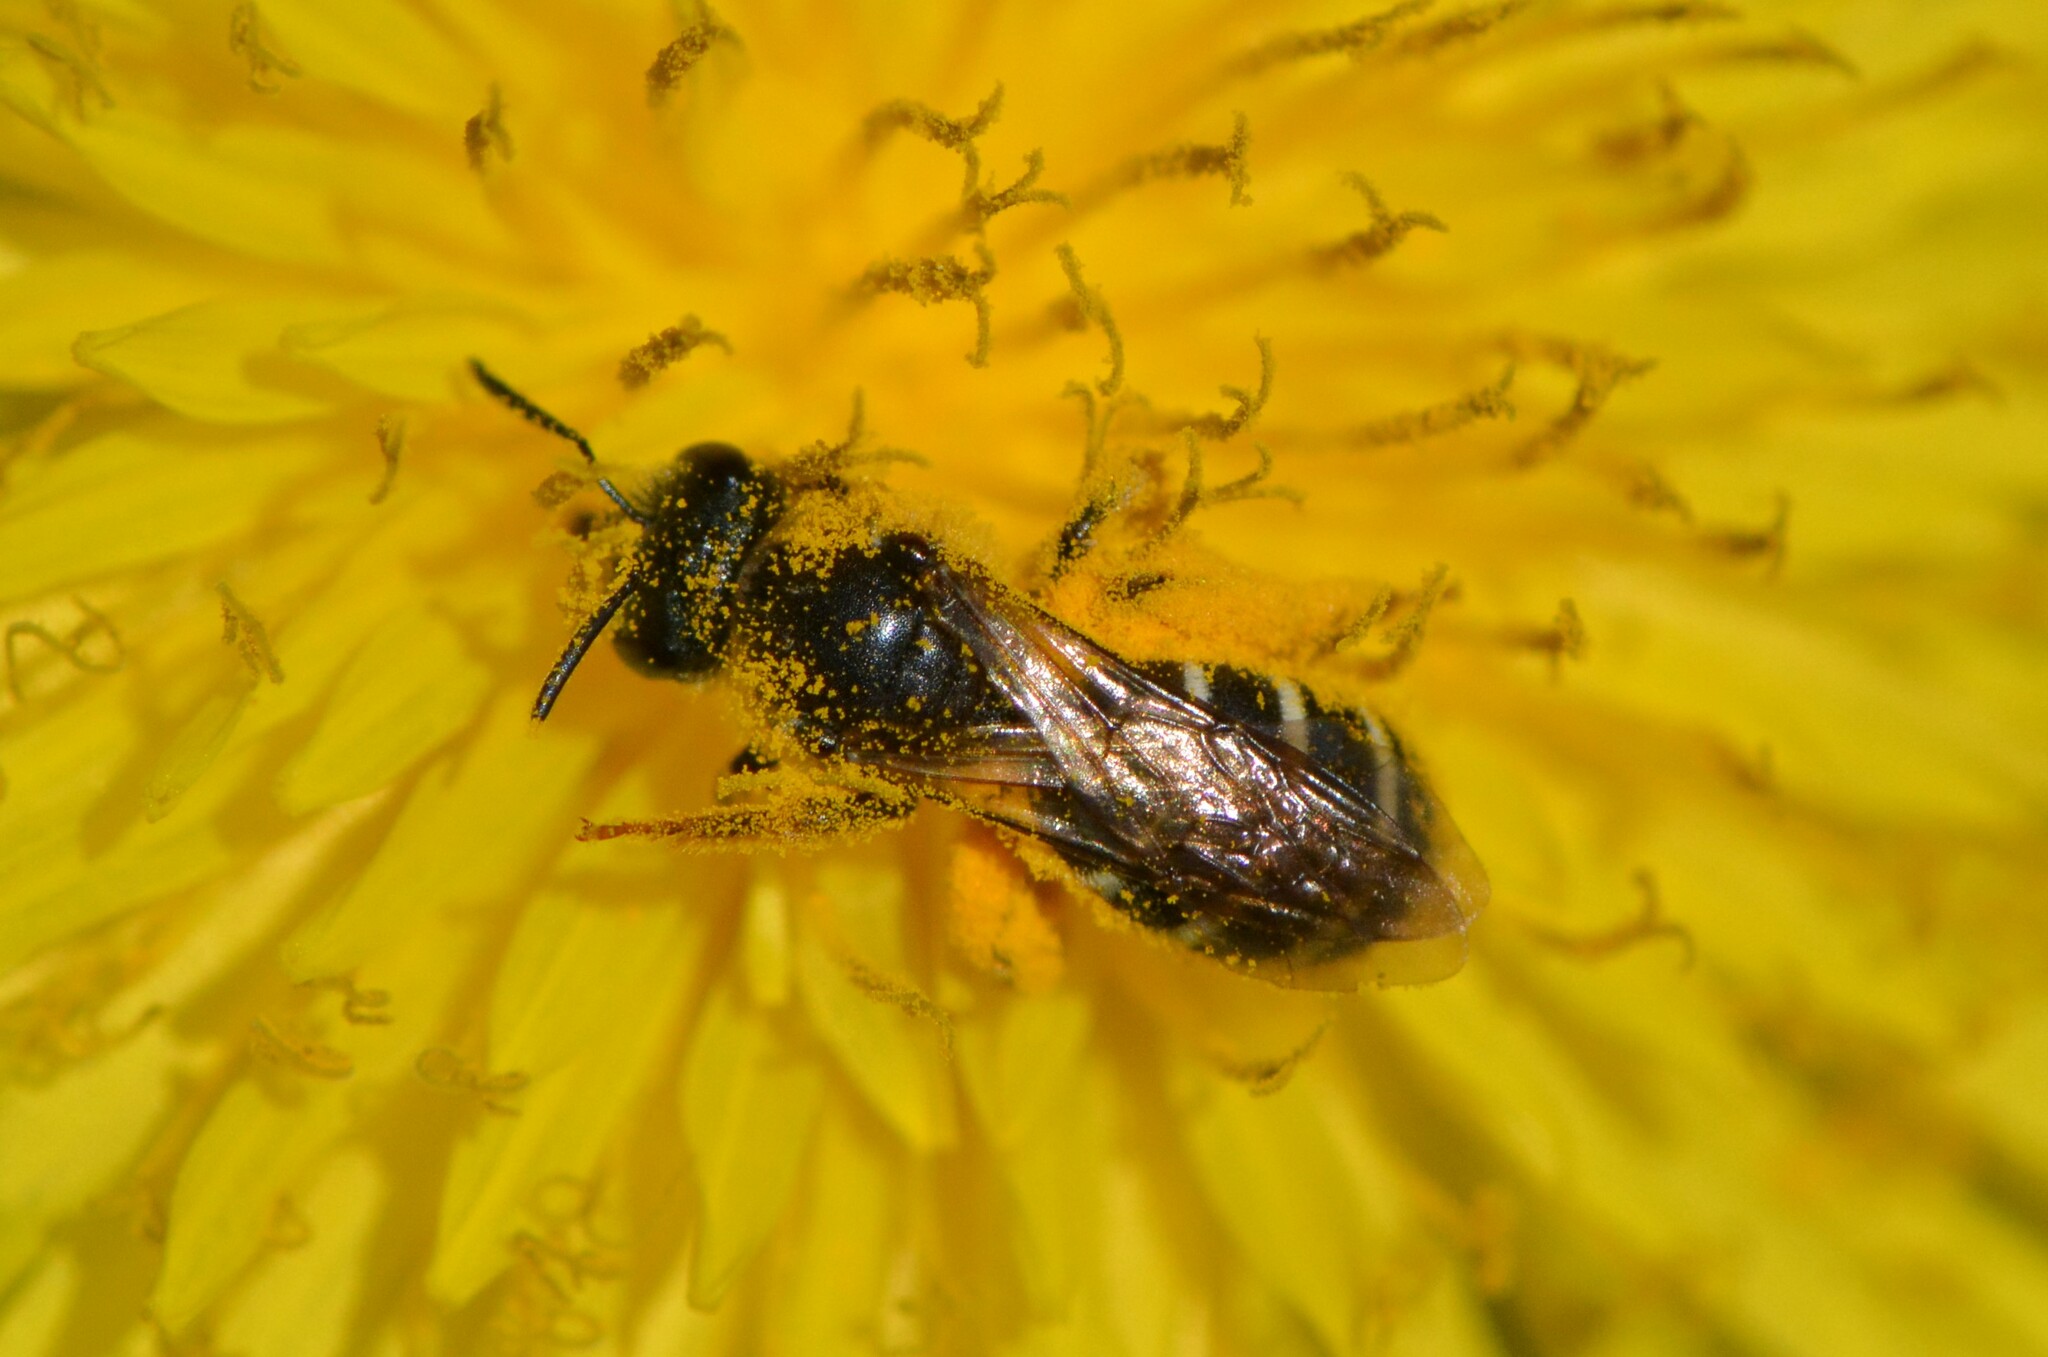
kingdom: Animalia
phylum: Arthropoda
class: Insecta
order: Hymenoptera
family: Halictidae
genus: Halictus
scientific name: Halictus rubicundus
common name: Orange-legged furrow bee
